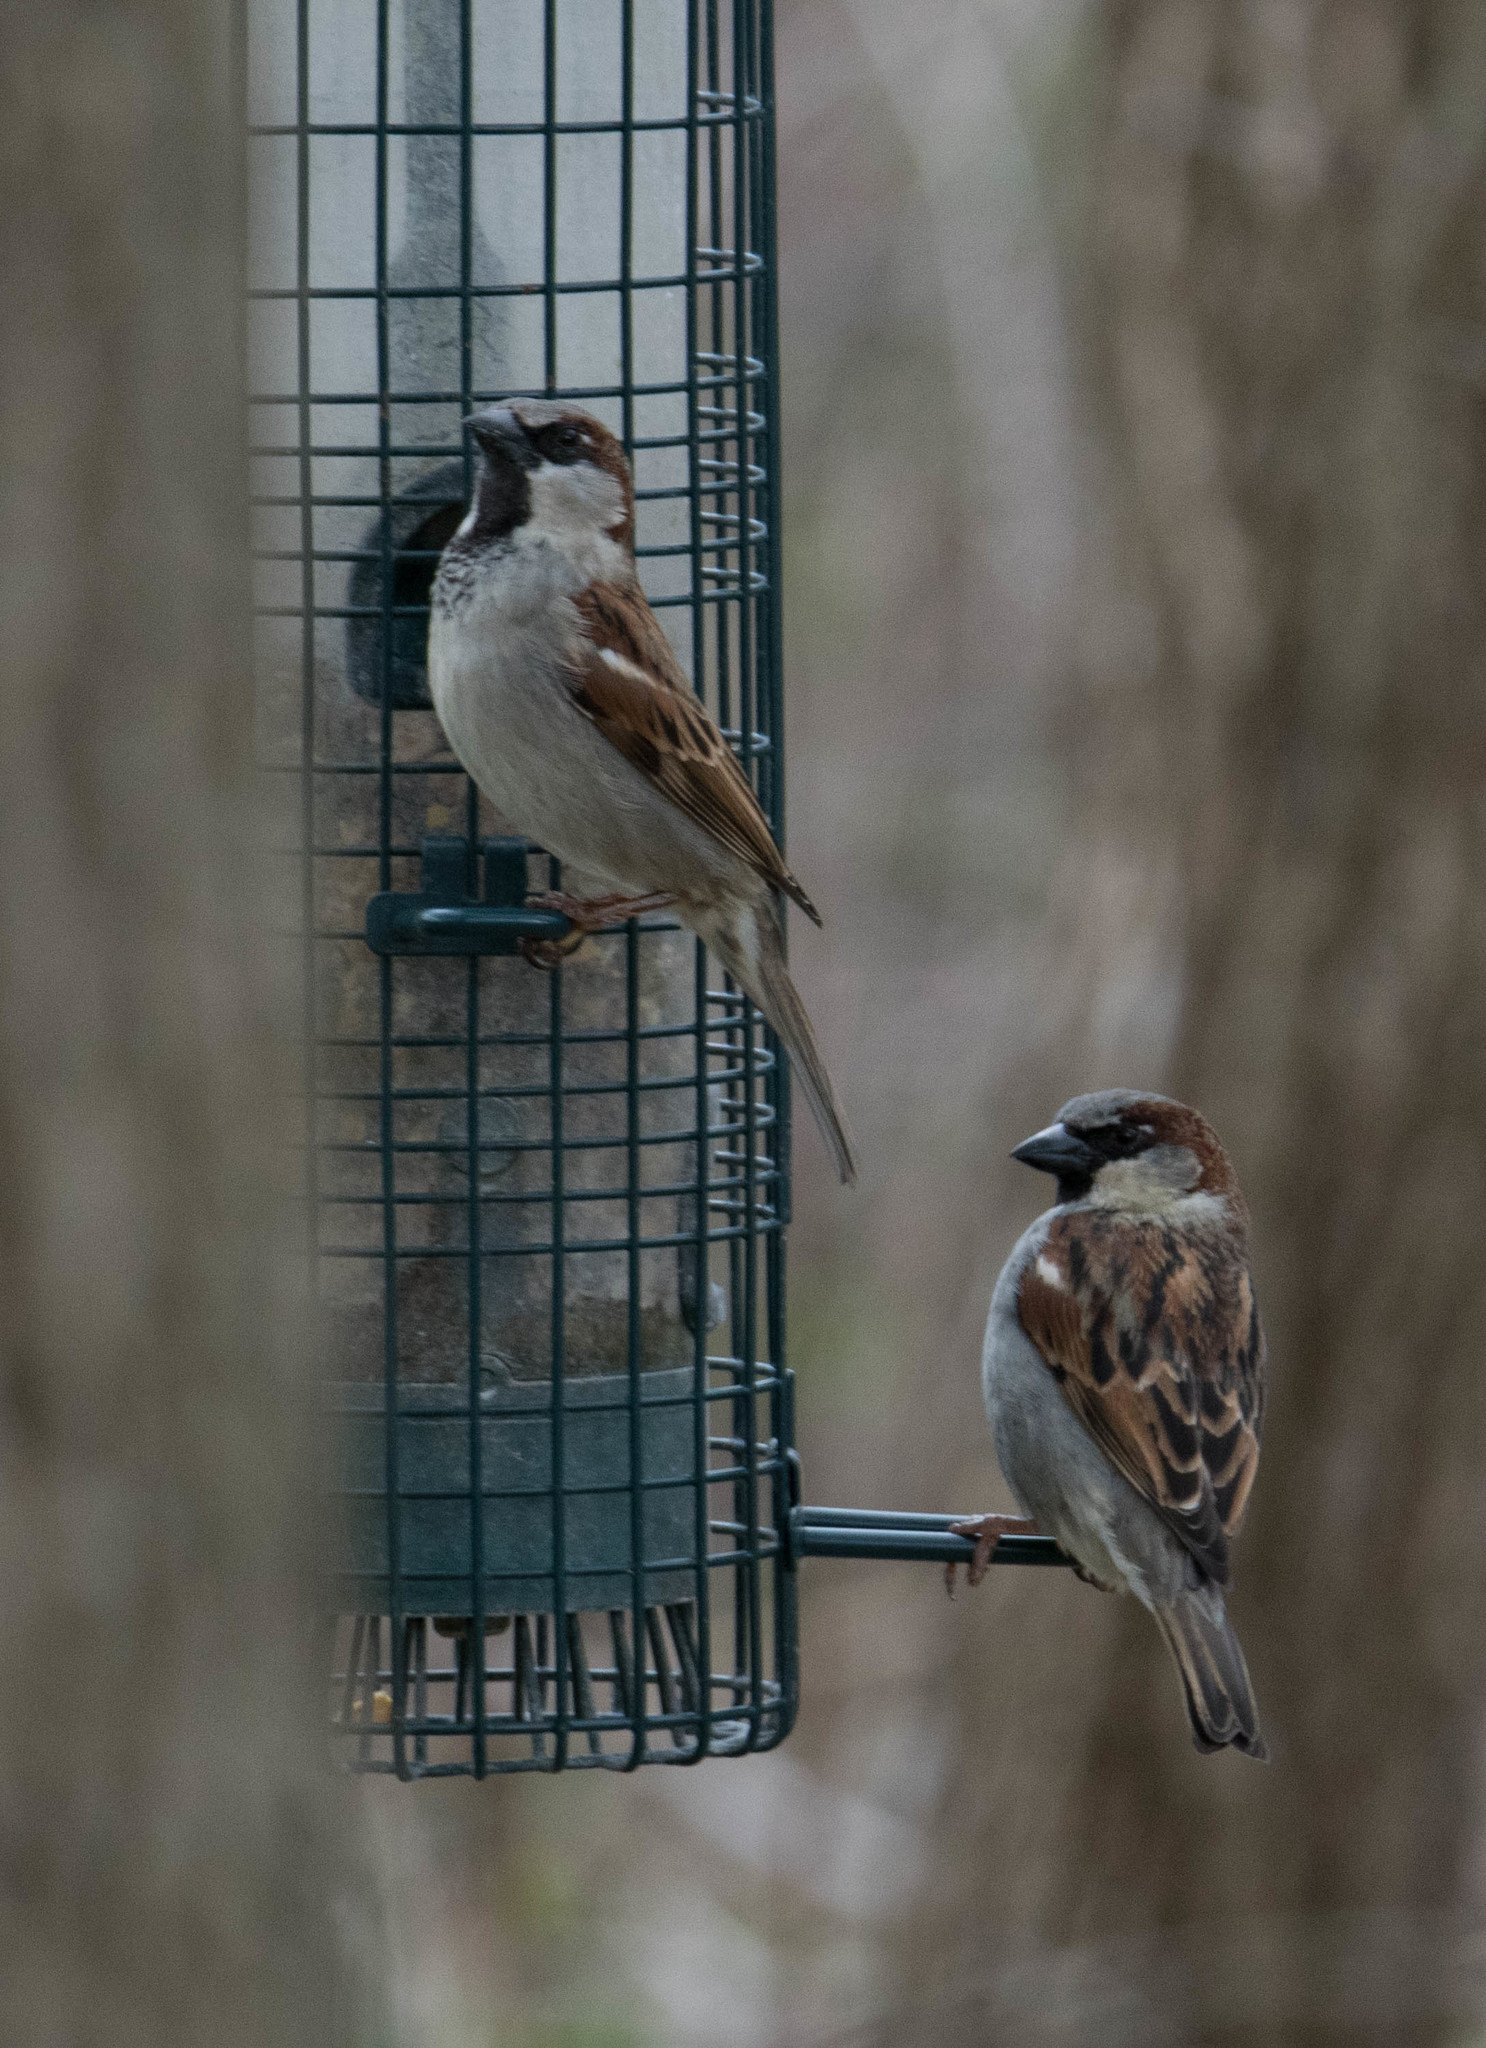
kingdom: Animalia
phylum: Chordata
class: Aves
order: Passeriformes
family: Passeridae
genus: Passer
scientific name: Passer domesticus
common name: House sparrow
